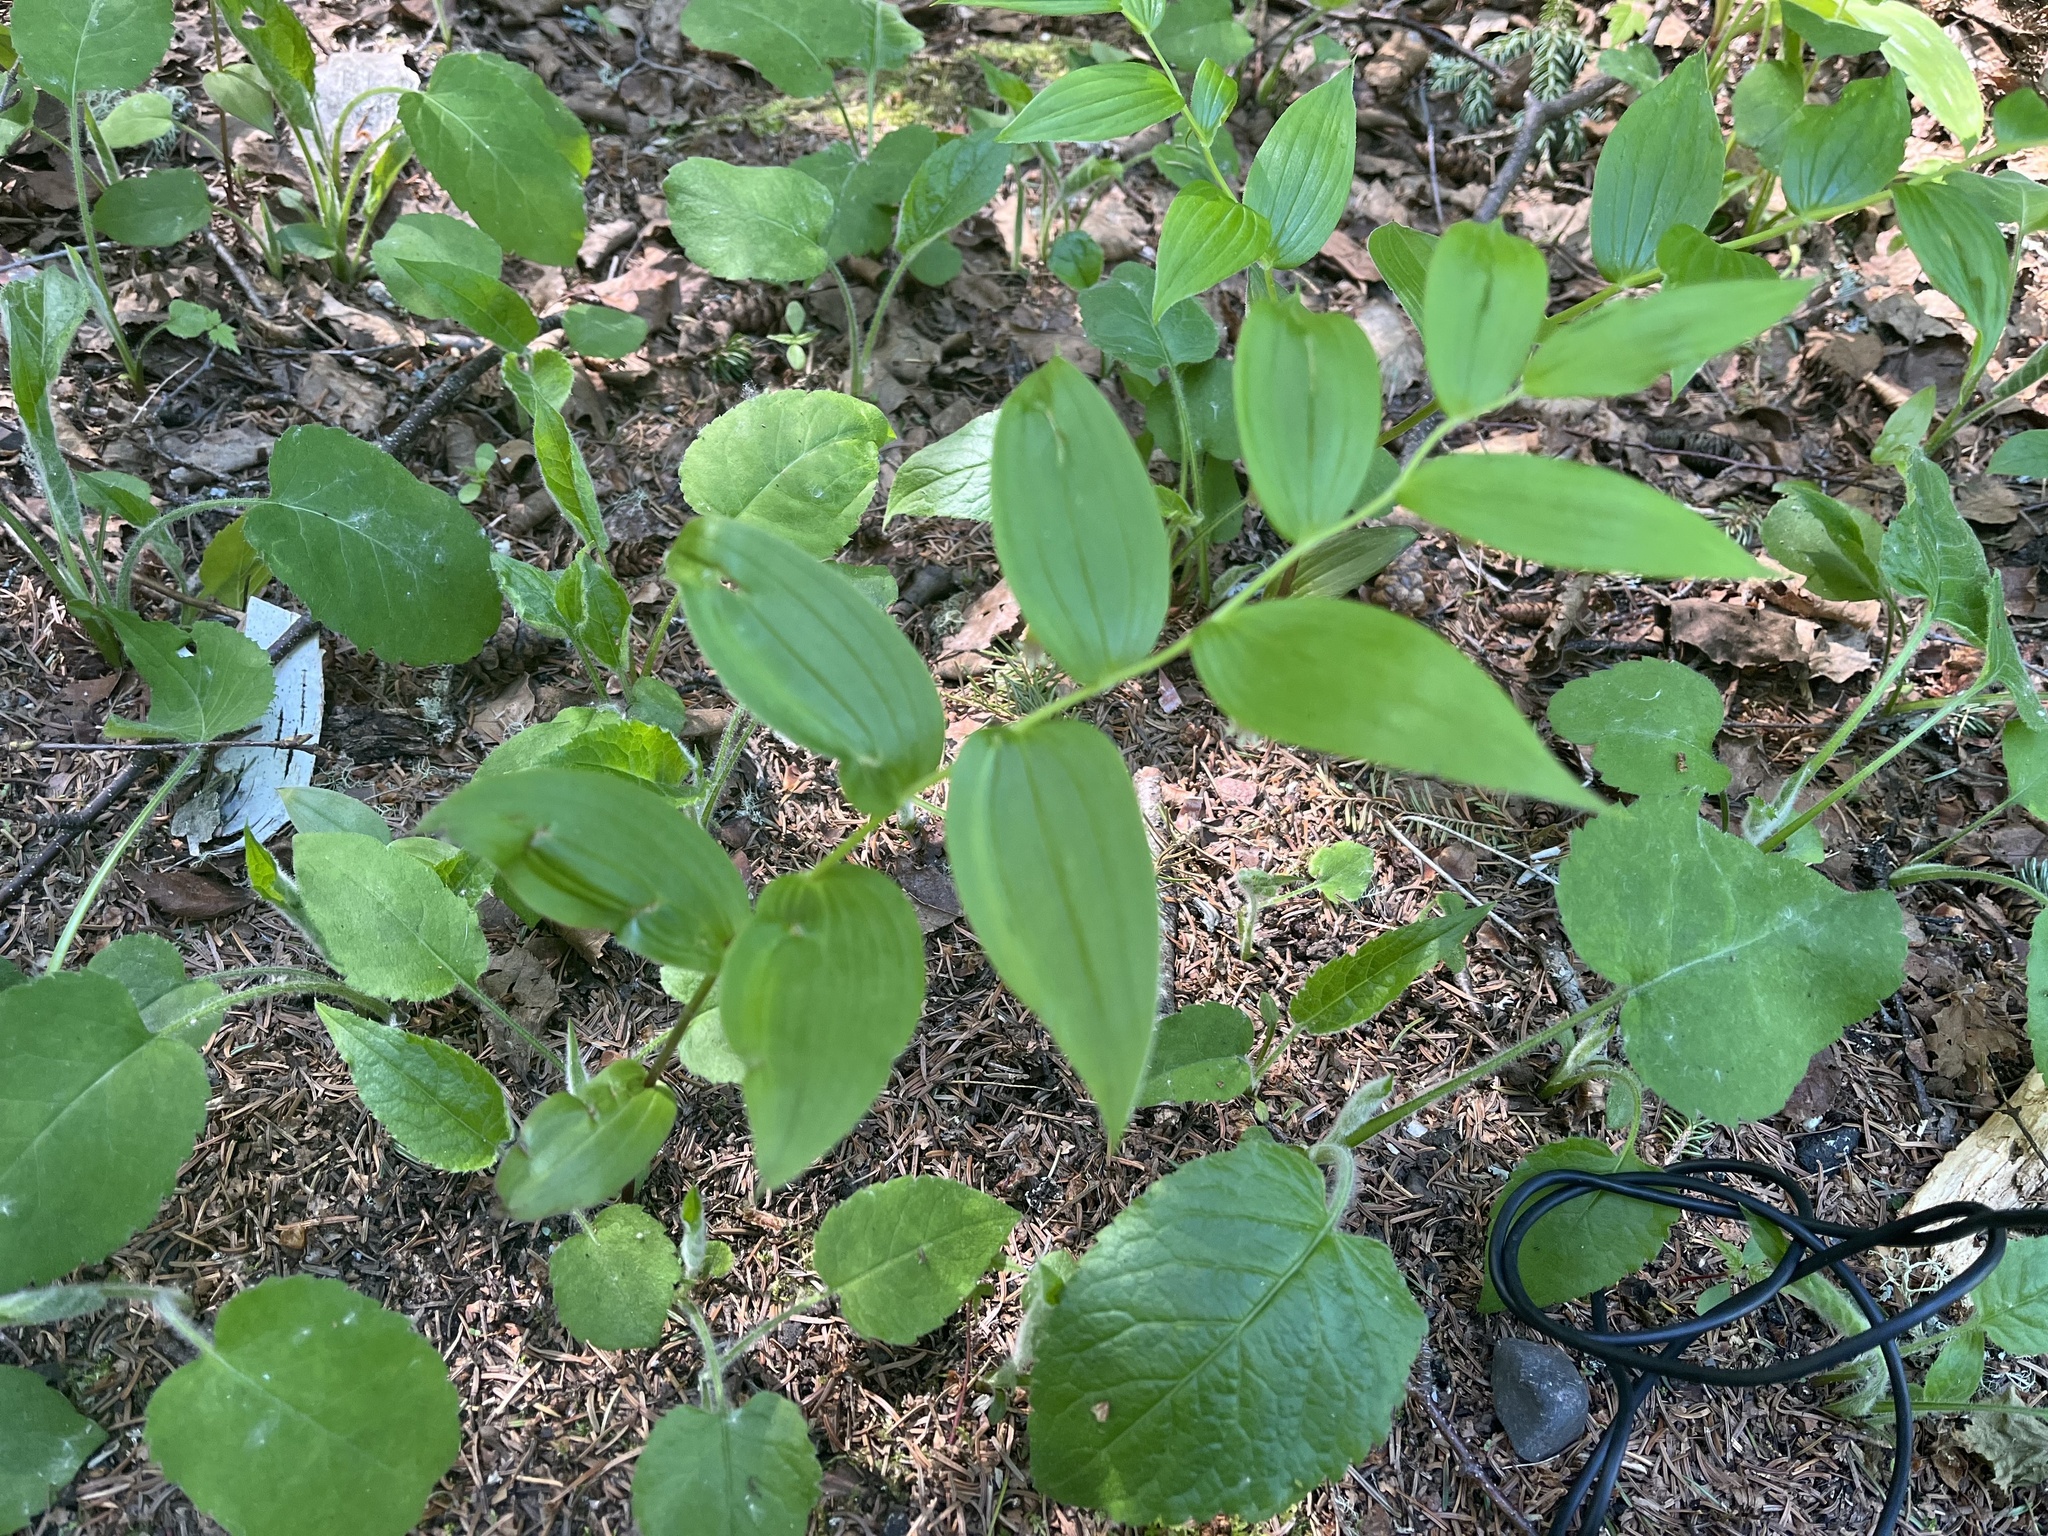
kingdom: Plantae
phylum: Tracheophyta
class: Liliopsida
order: Liliales
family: Liliaceae
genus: Streptopus
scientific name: Streptopus lanceolatus
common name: Rose mandarin
